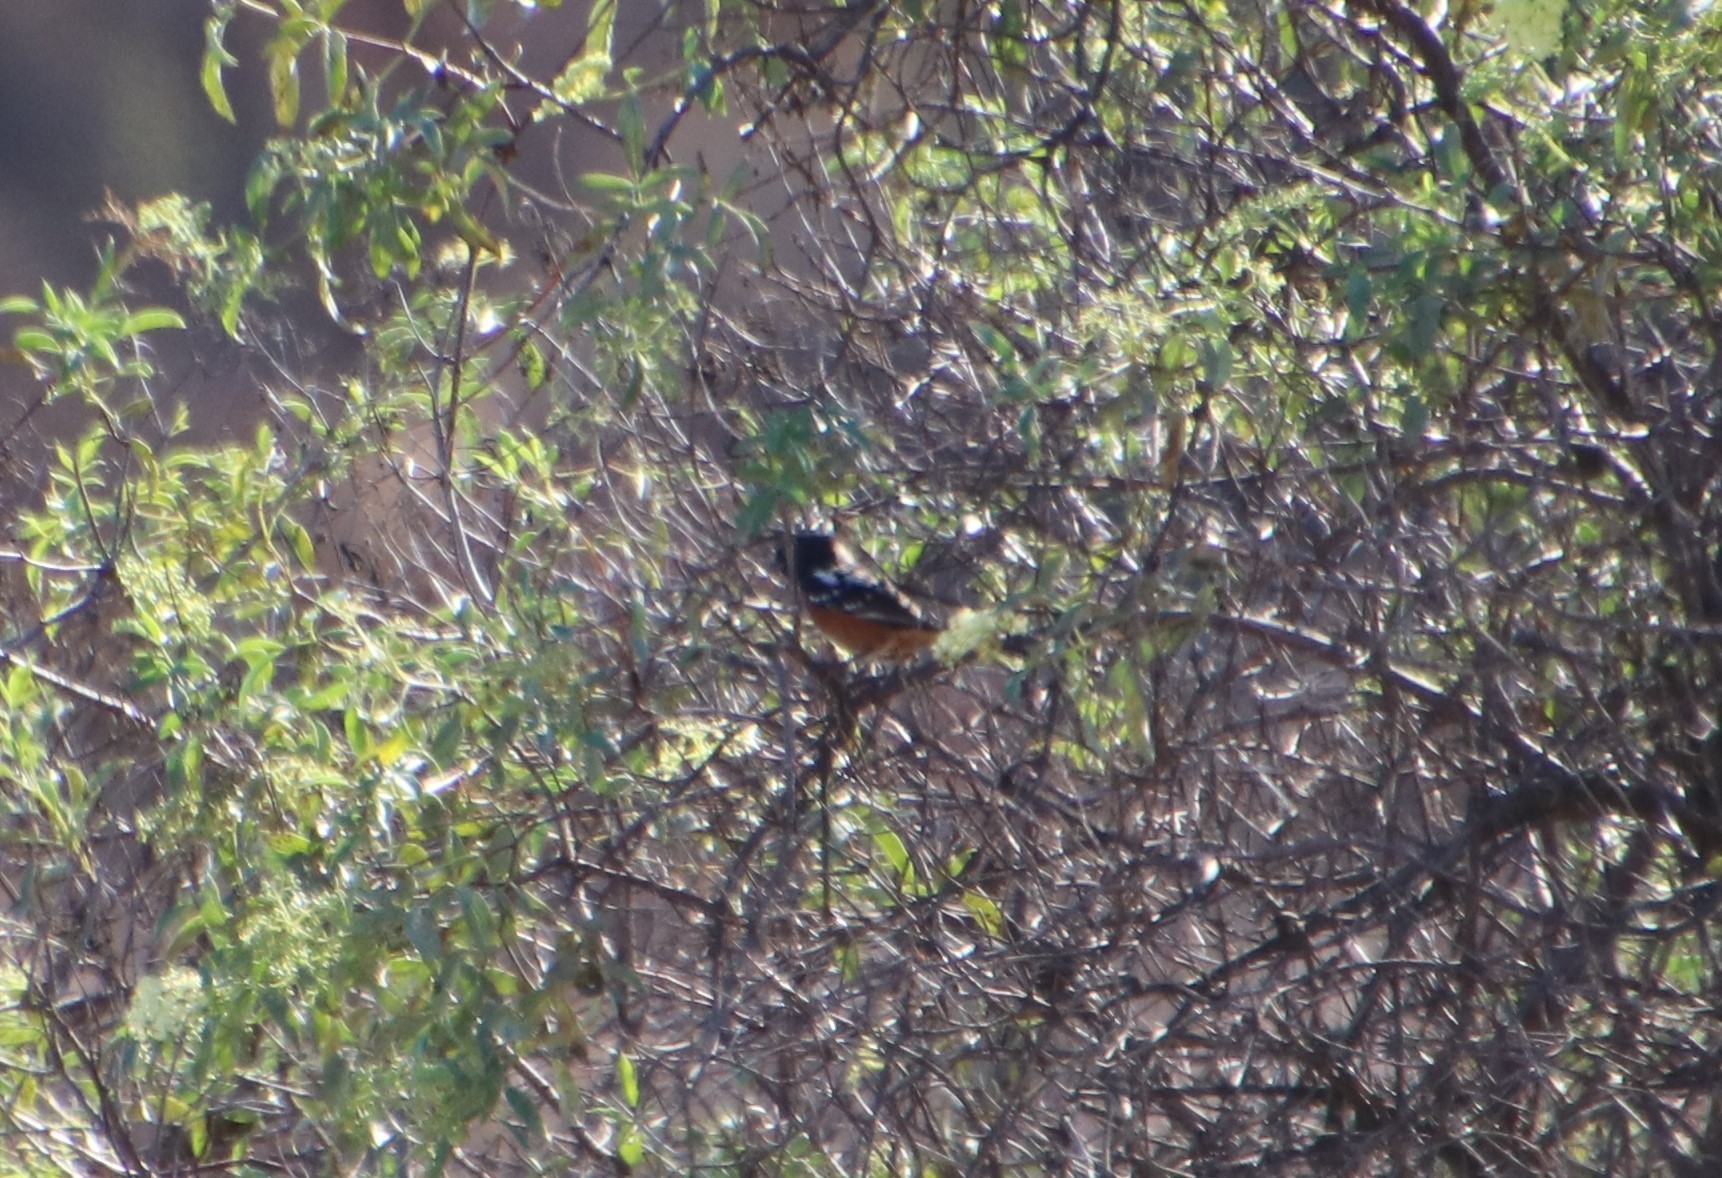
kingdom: Animalia
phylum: Chordata
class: Aves
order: Passeriformes
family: Passerellidae
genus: Pipilo
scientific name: Pipilo maculatus
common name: Spotted towhee
